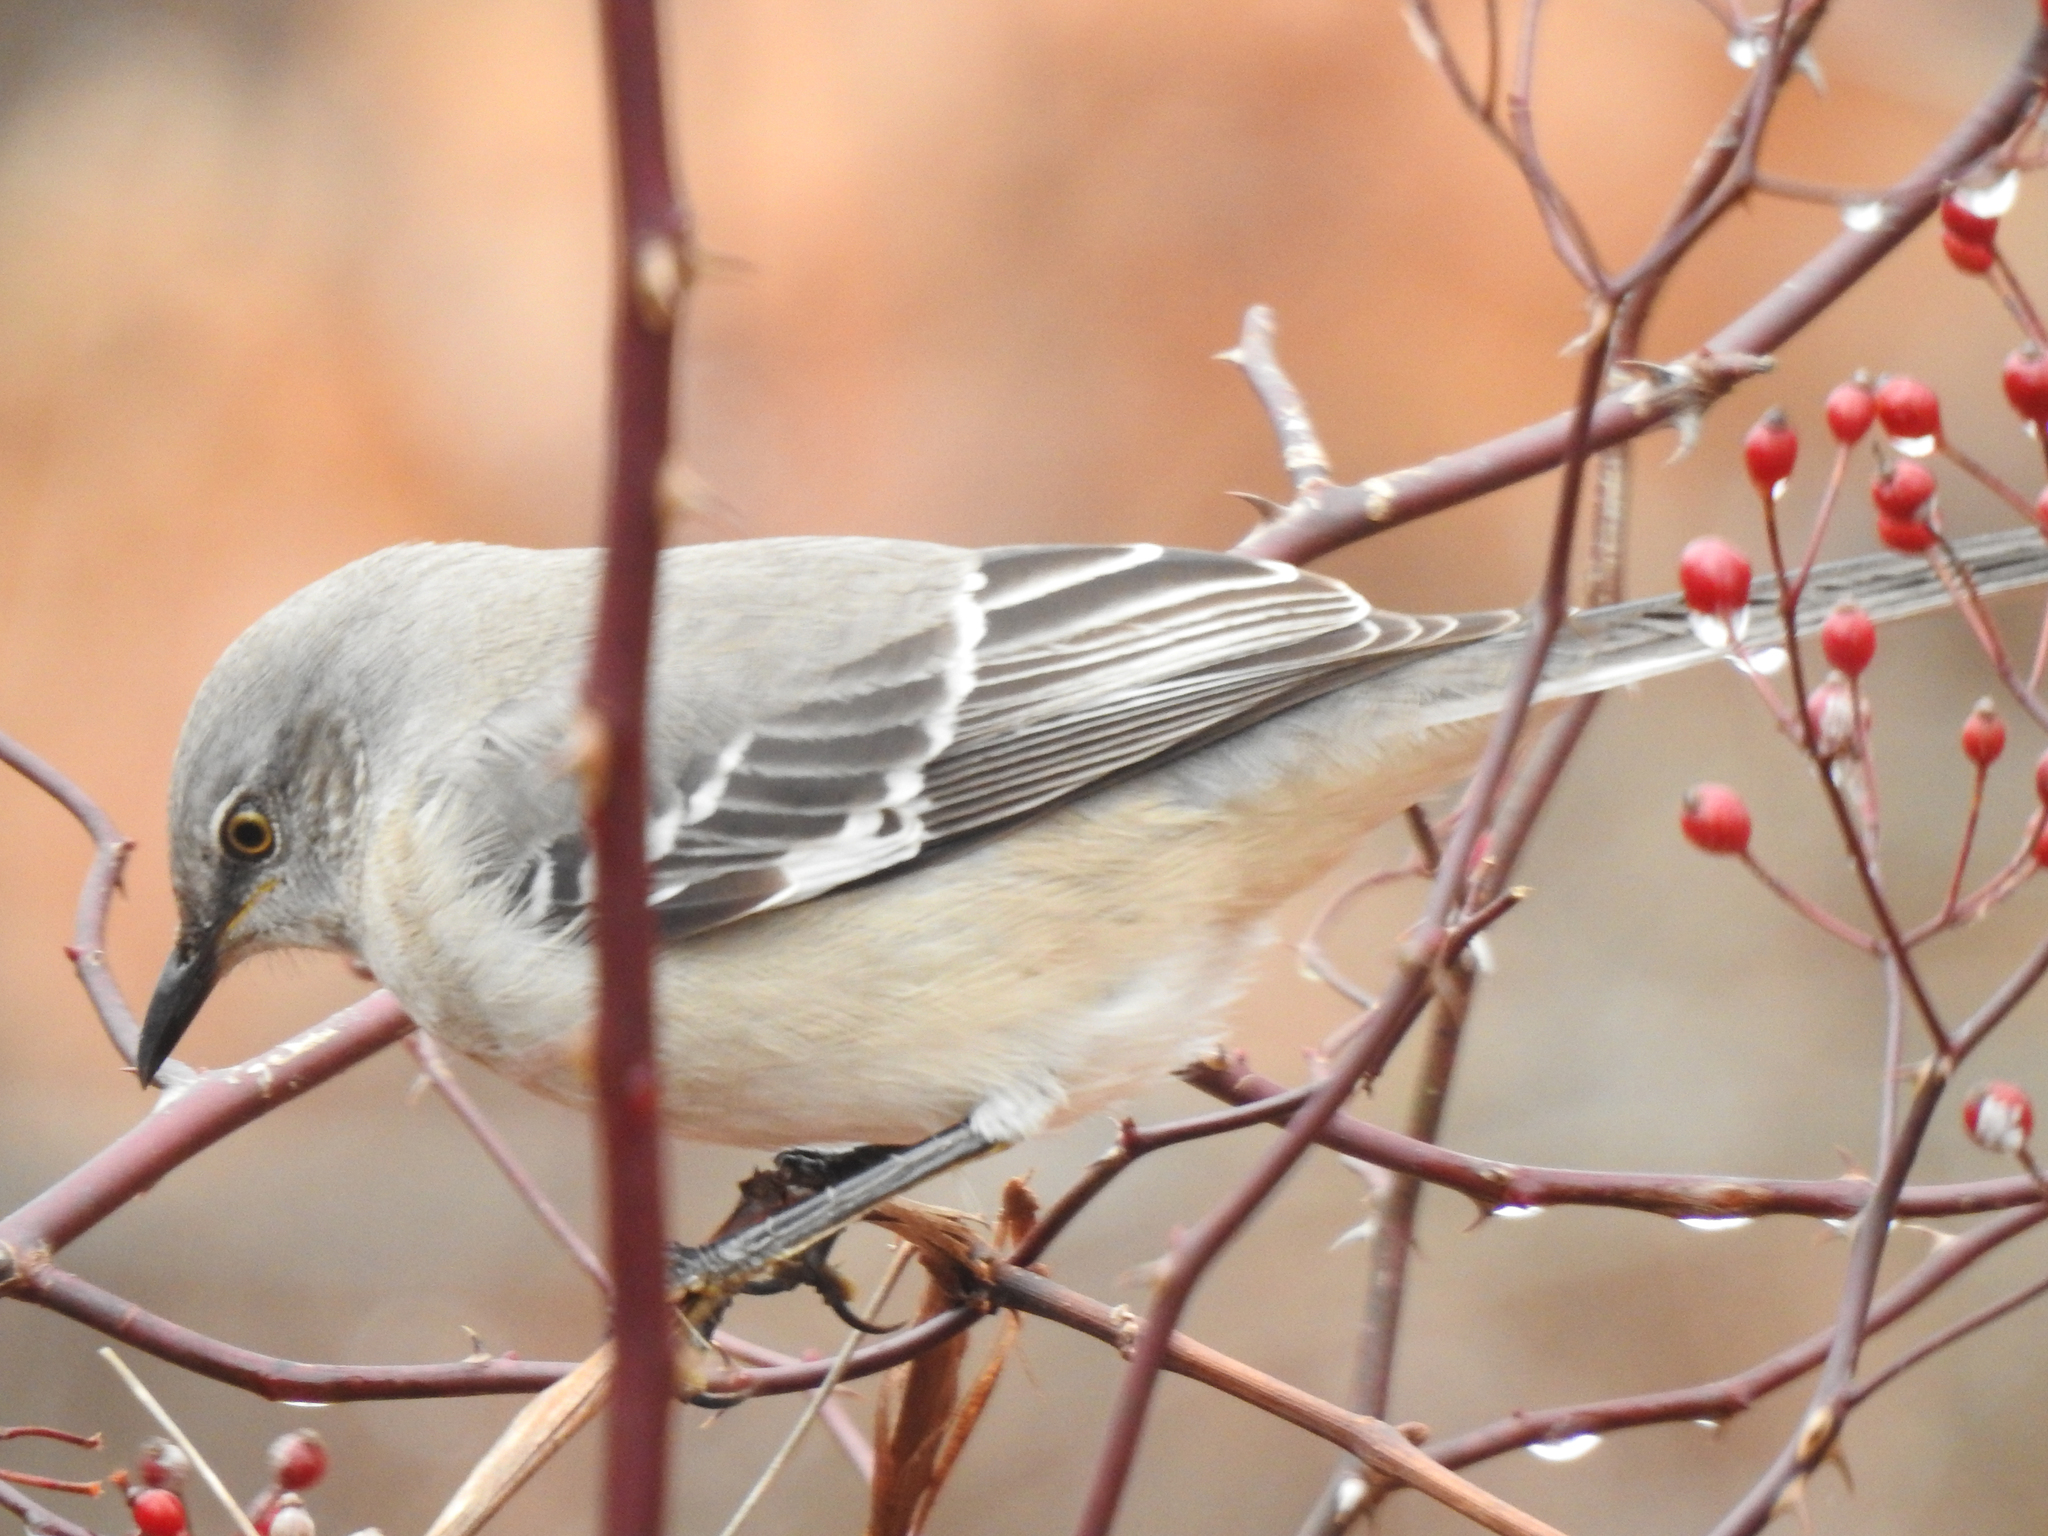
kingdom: Animalia
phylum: Chordata
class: Aves
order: Passeriformes
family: Mimidae
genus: Mimus
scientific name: Mimus polyglottos
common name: Northern mockingbird
